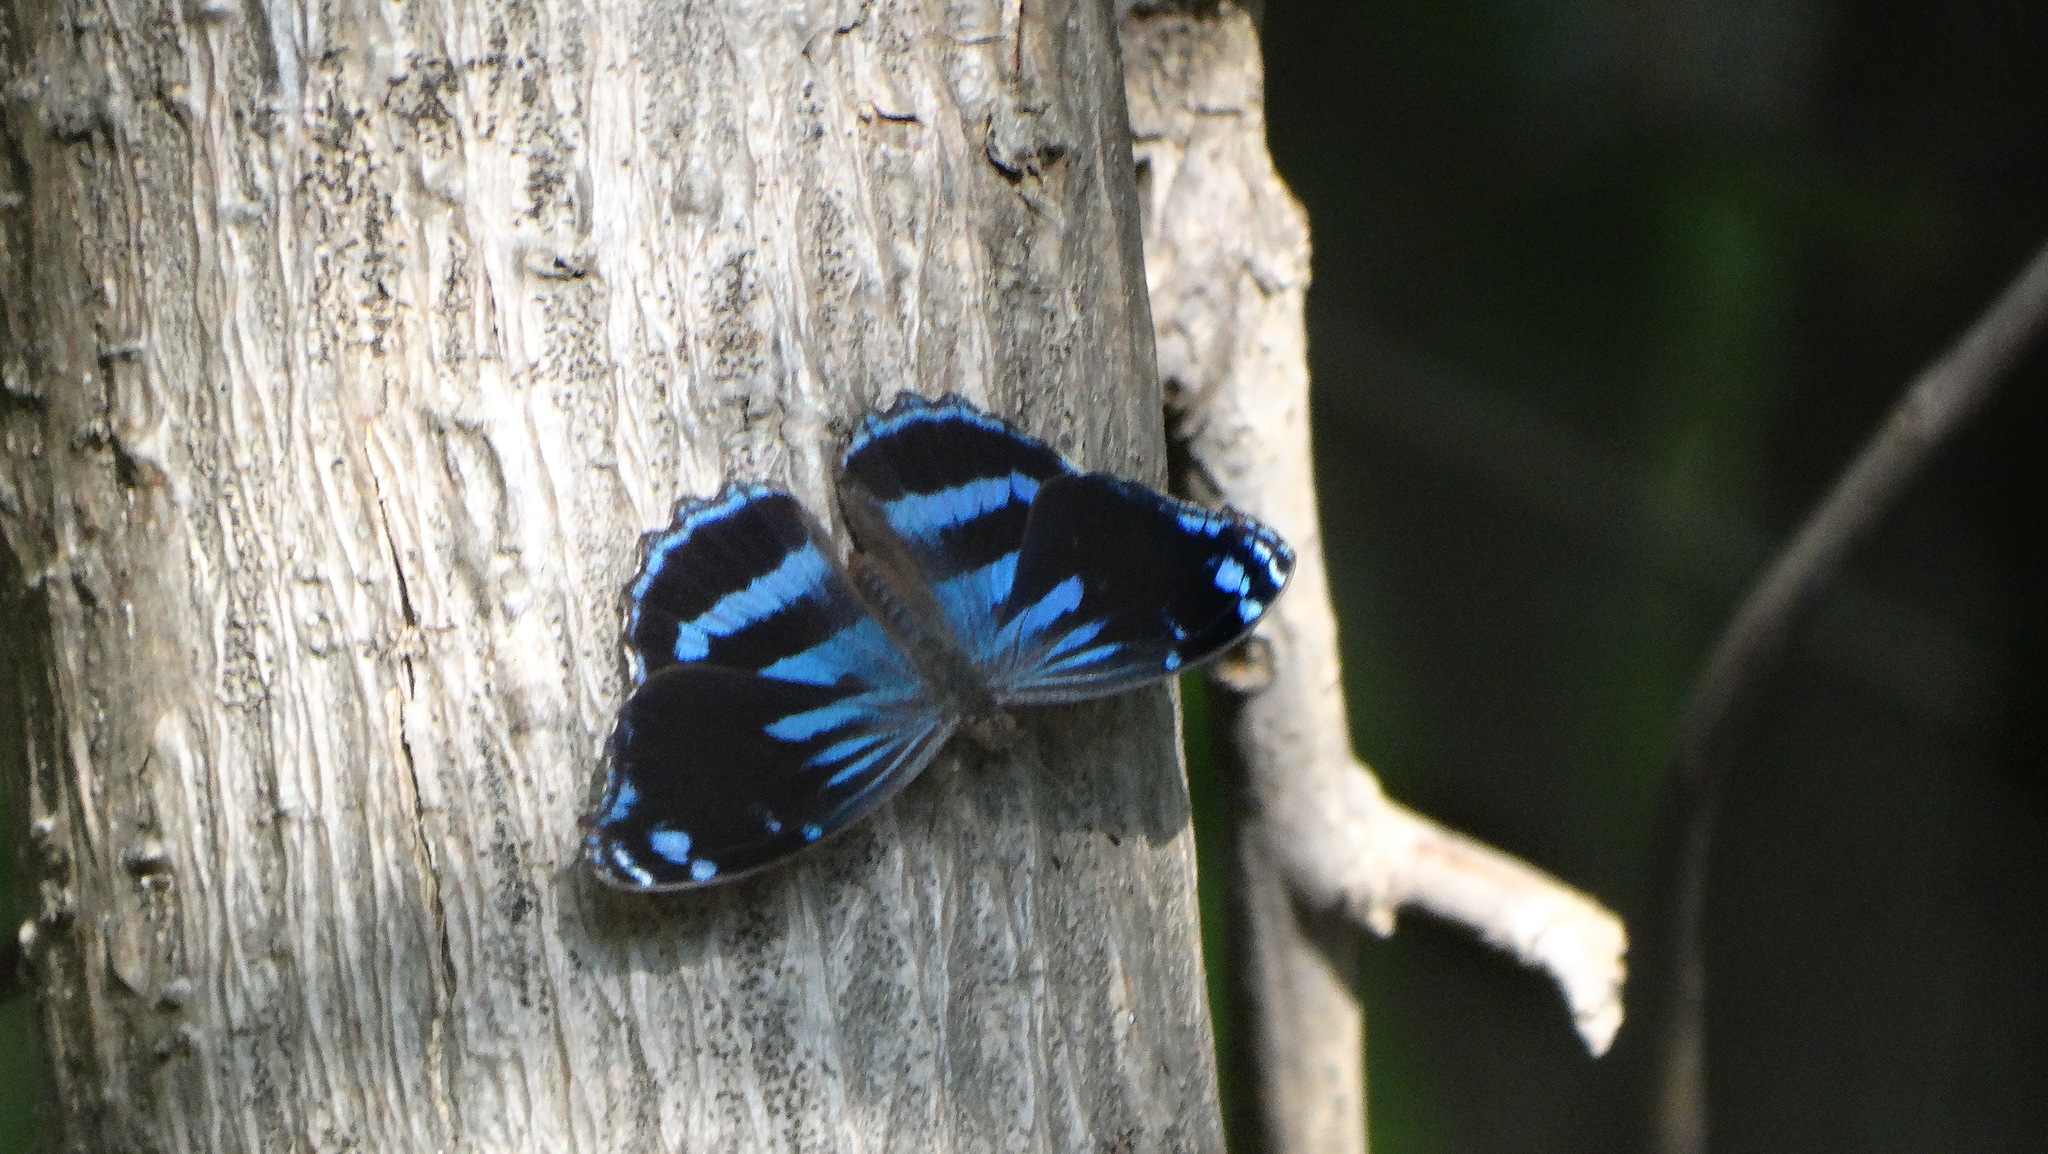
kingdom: Animalia
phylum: Arthropoda
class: Insecta
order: Lepidoptera
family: Nymphalidae
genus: Myscelia
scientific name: Myscelia cyananthe
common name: Blackened bluewing
